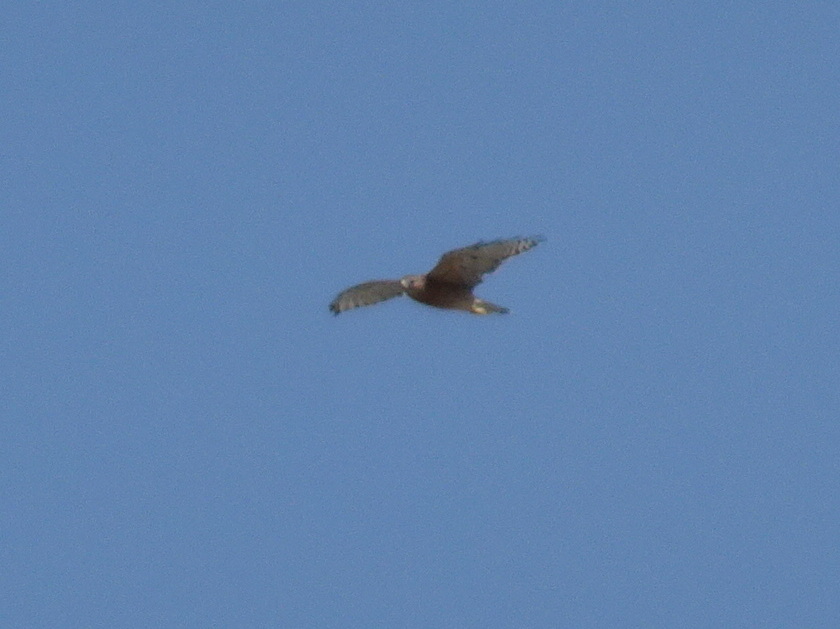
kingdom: Animalia
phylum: Chordata
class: Aves
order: Accipitriformes
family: Accipitridae
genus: Buteo
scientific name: Buteo lineatus
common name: Red-shouldered hawk
